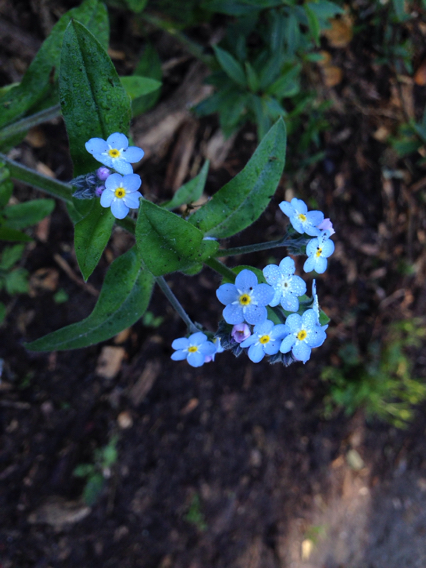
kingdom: Plantae
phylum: Tracheophyta
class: Magnoliopsida
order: Boraginales
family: Boraginaceae
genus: Myosotis
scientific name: Myosotis latifolia
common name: Broadleaf forget-me-not
